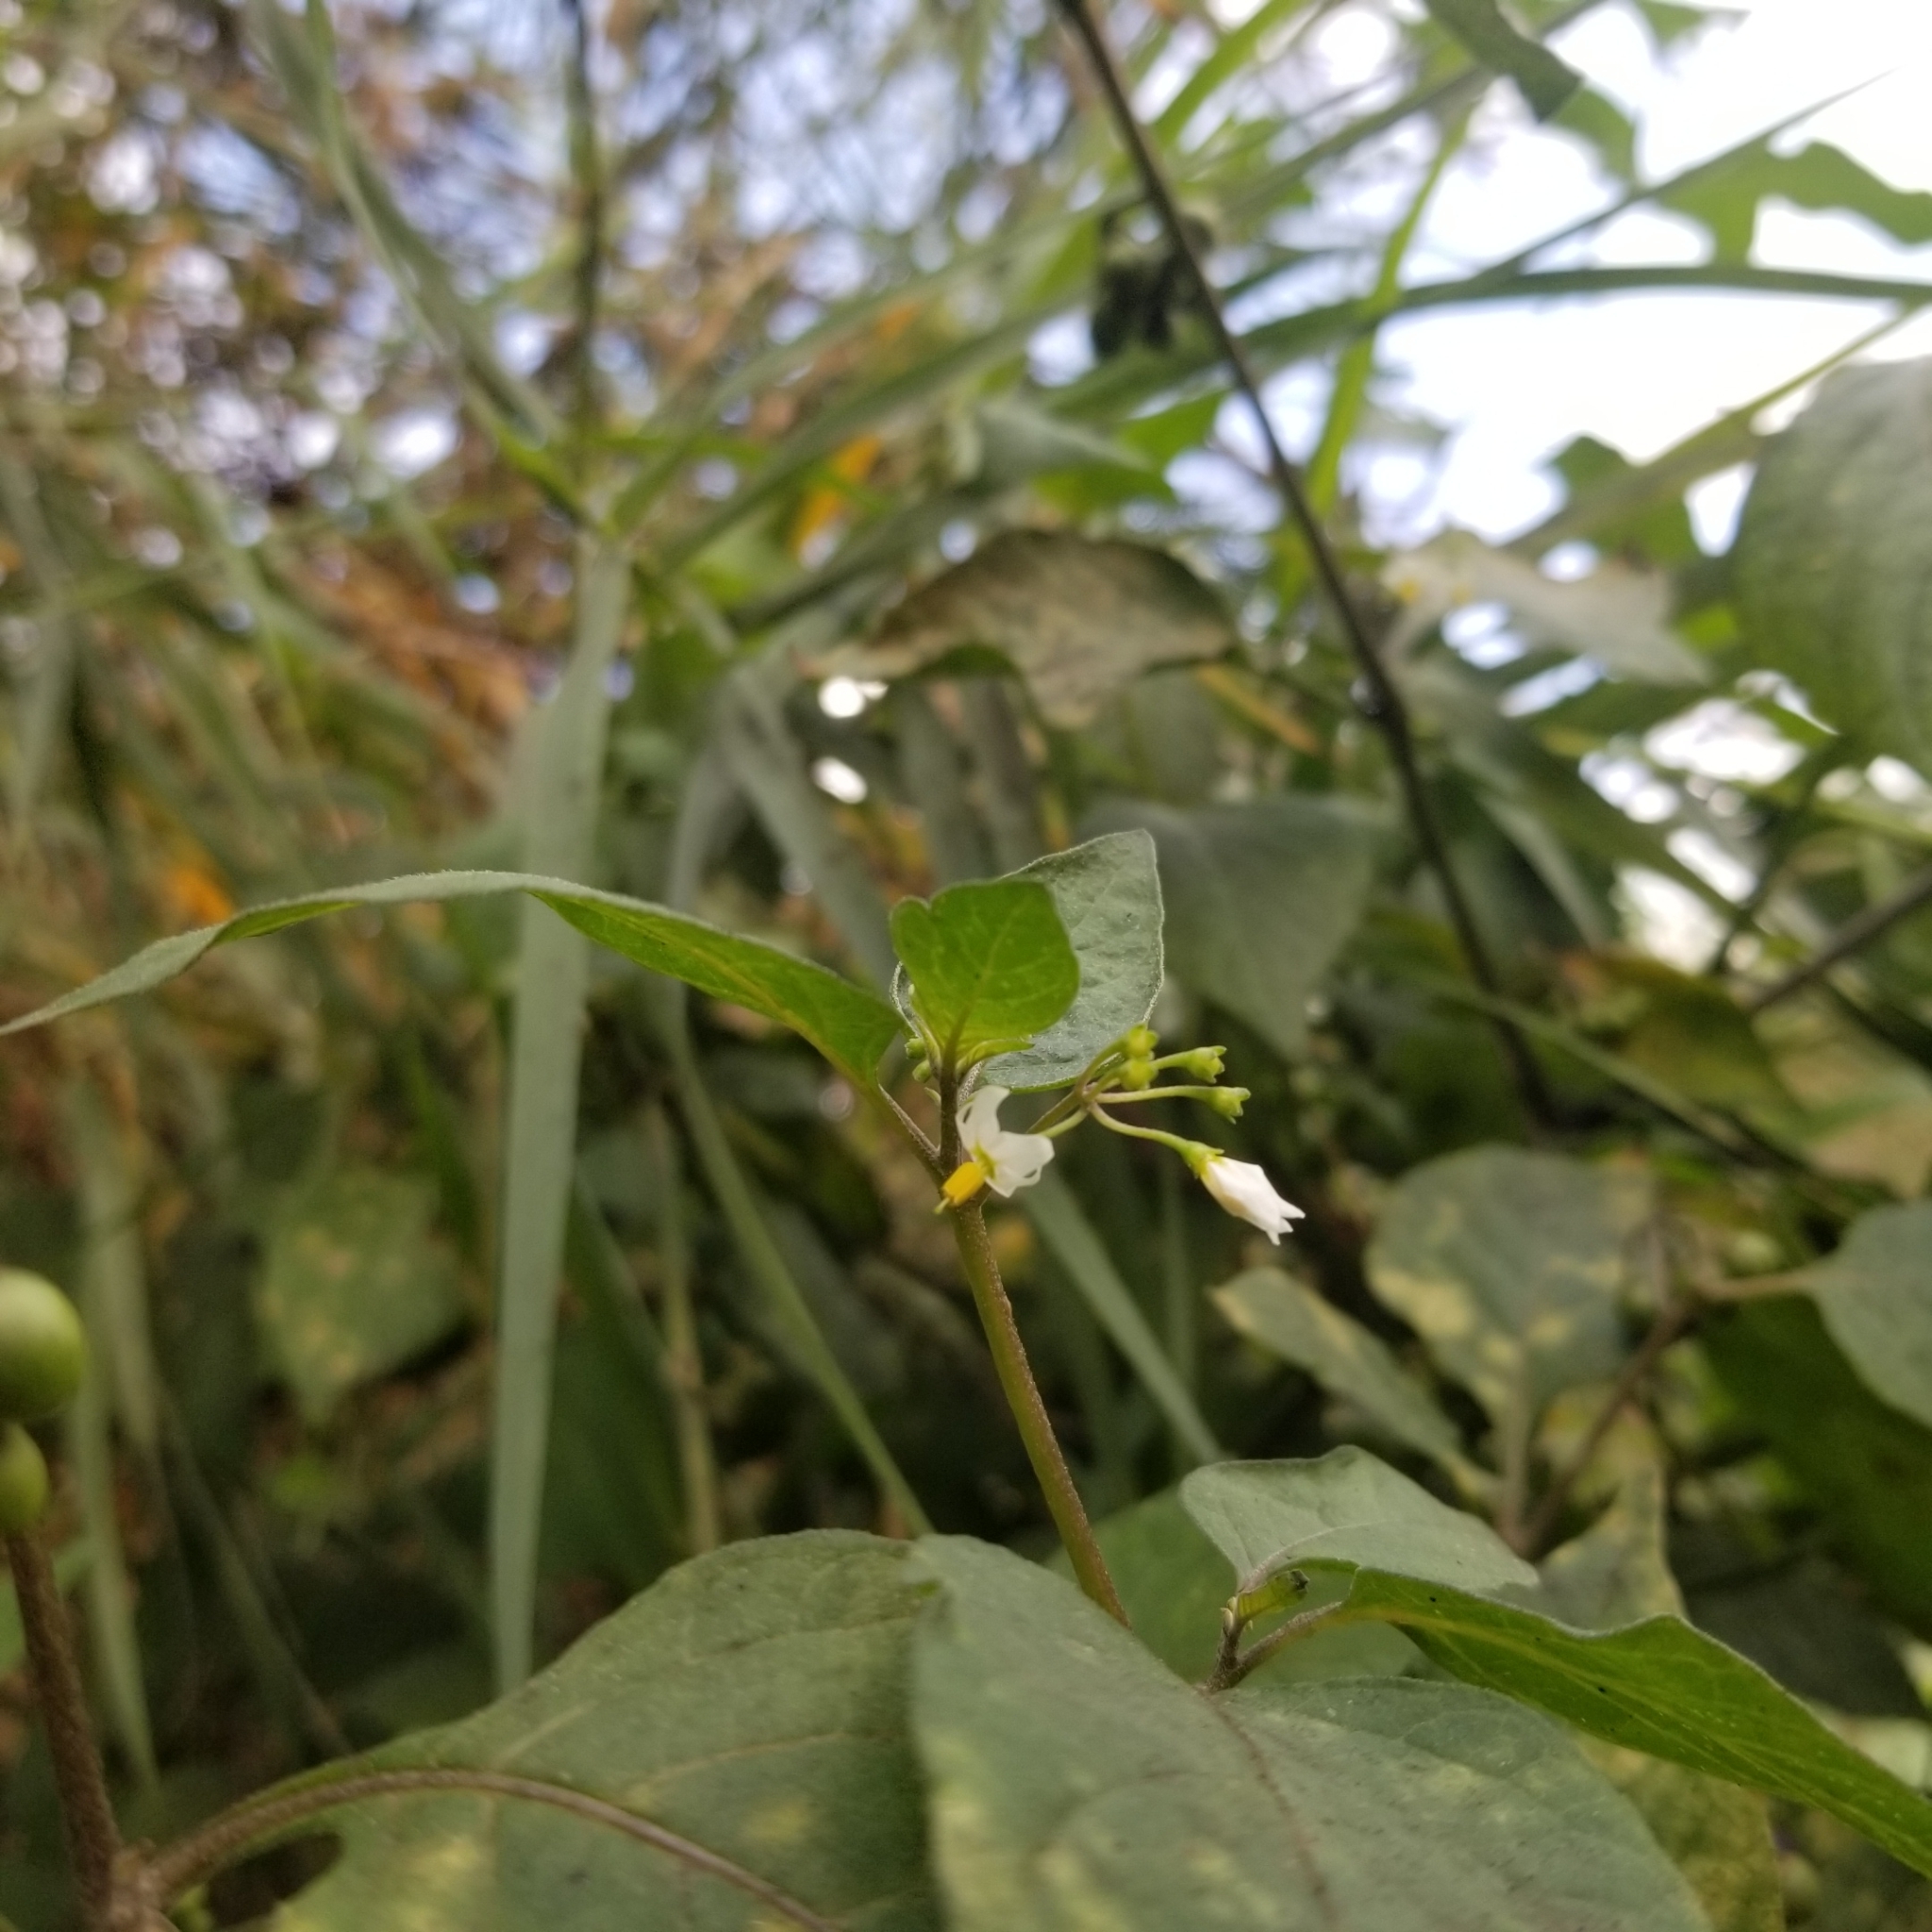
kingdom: Plantae
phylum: Tracheophyta
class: Magnoliopsida
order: Solanales
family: Solanaceae
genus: Solanum
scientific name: Solanum nigrum
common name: Black nightshade
